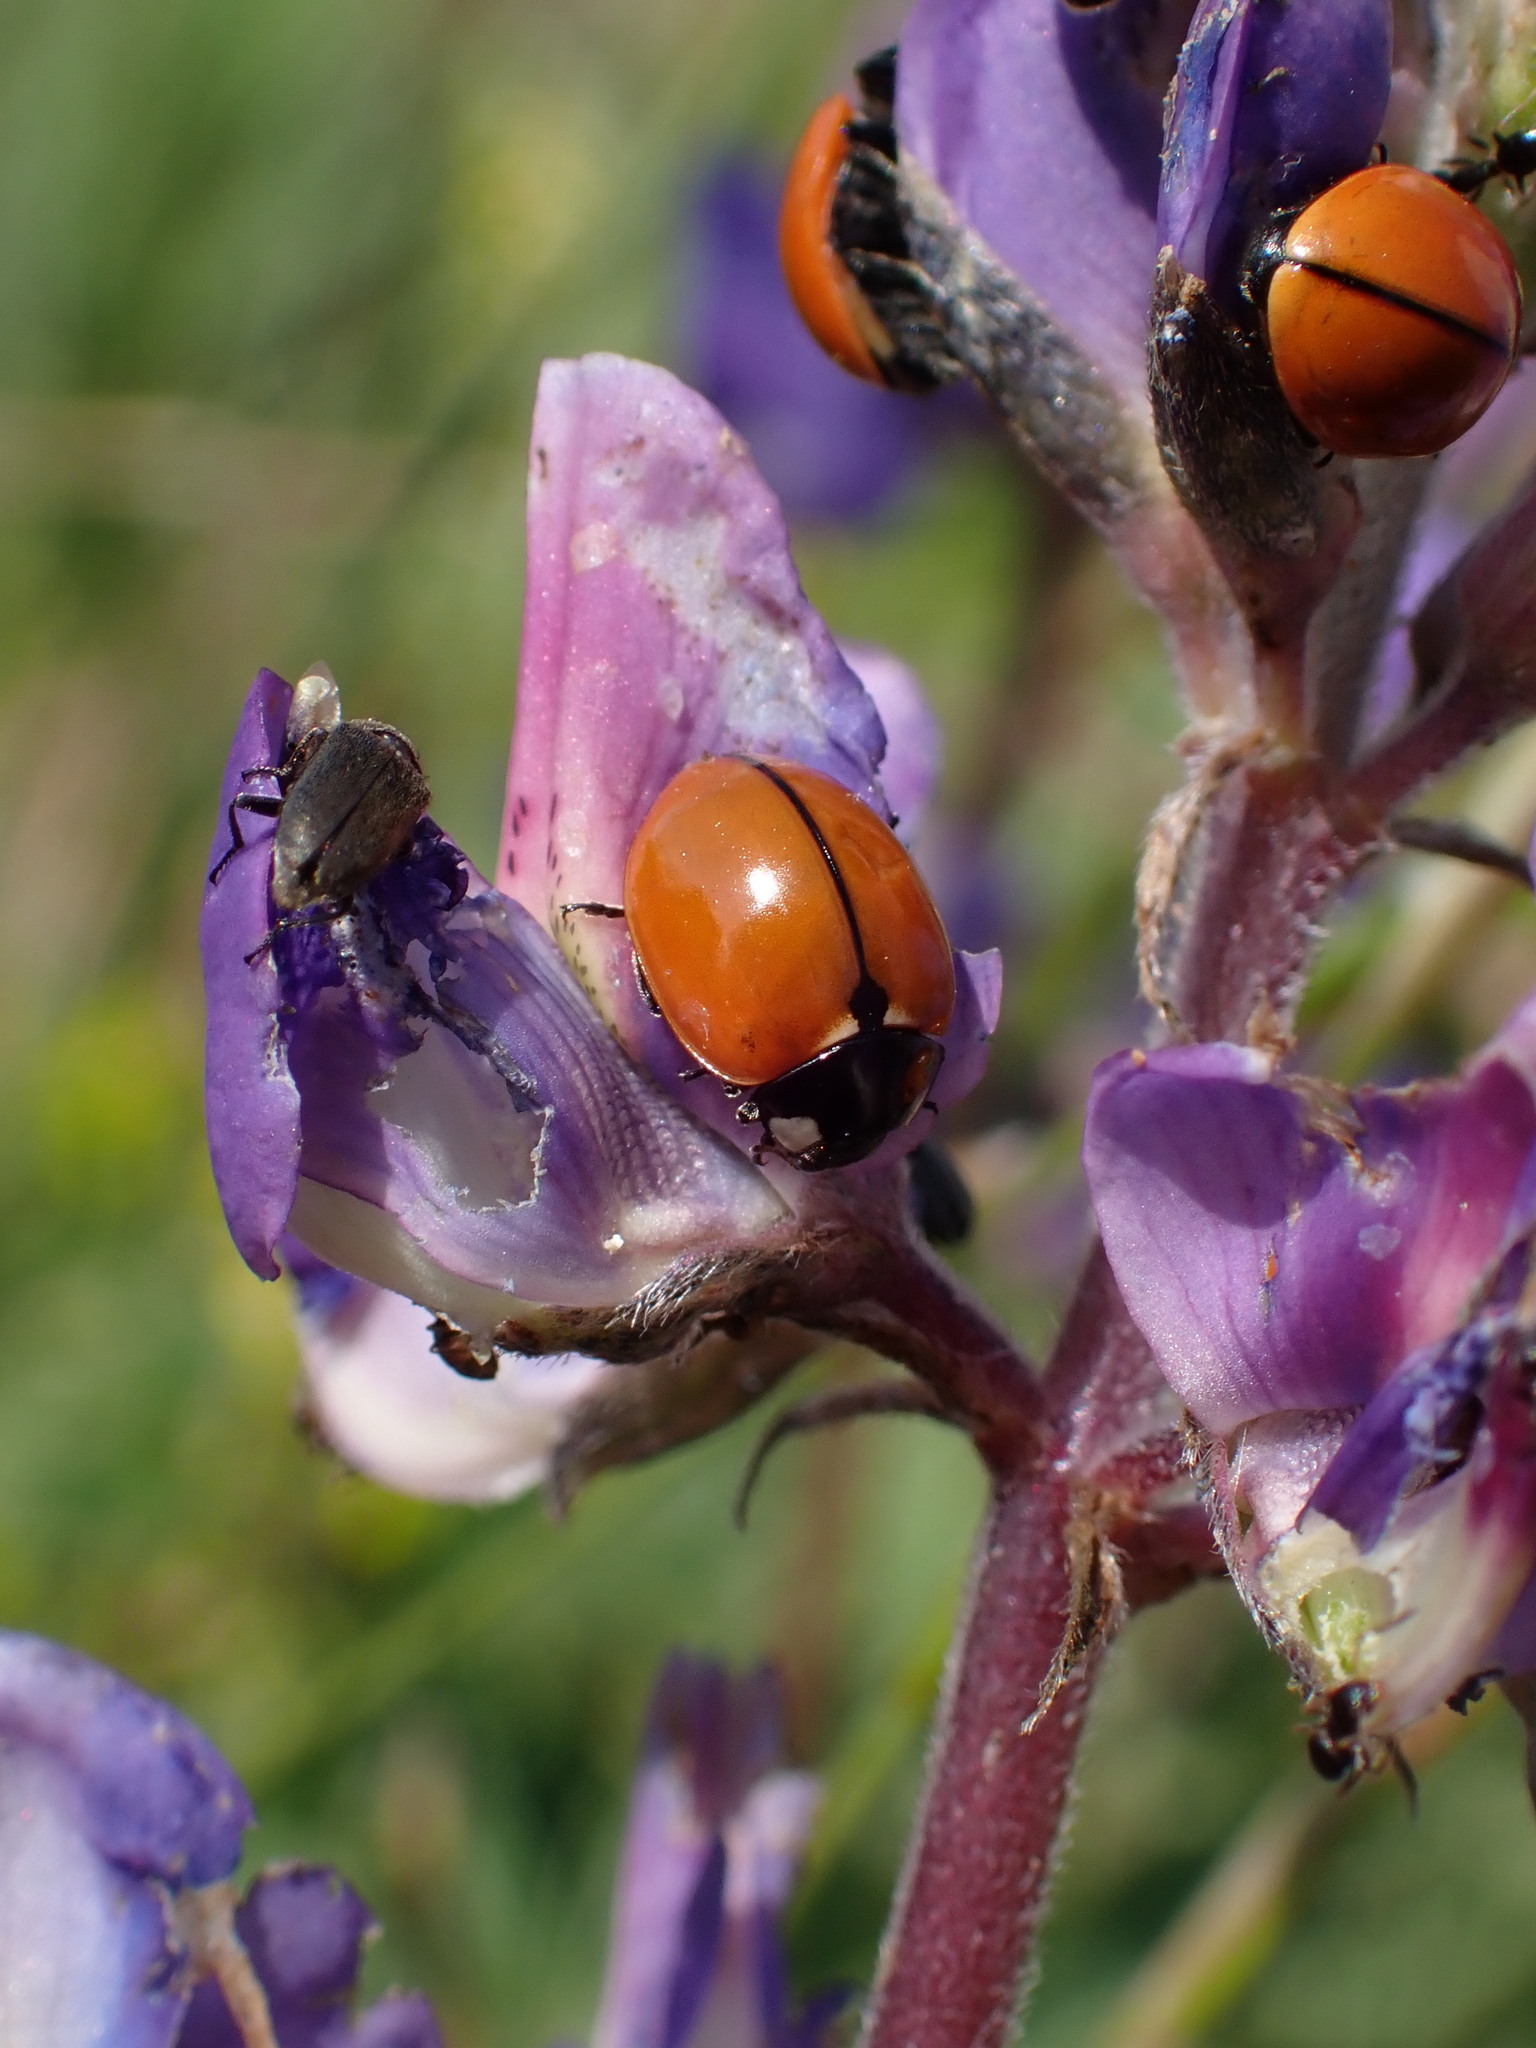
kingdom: Animalia
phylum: Arthropoda
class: Insecta
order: Coleoptera
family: Coccinellidae
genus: Coccinella
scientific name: Coccinella californica
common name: Lady beetle
